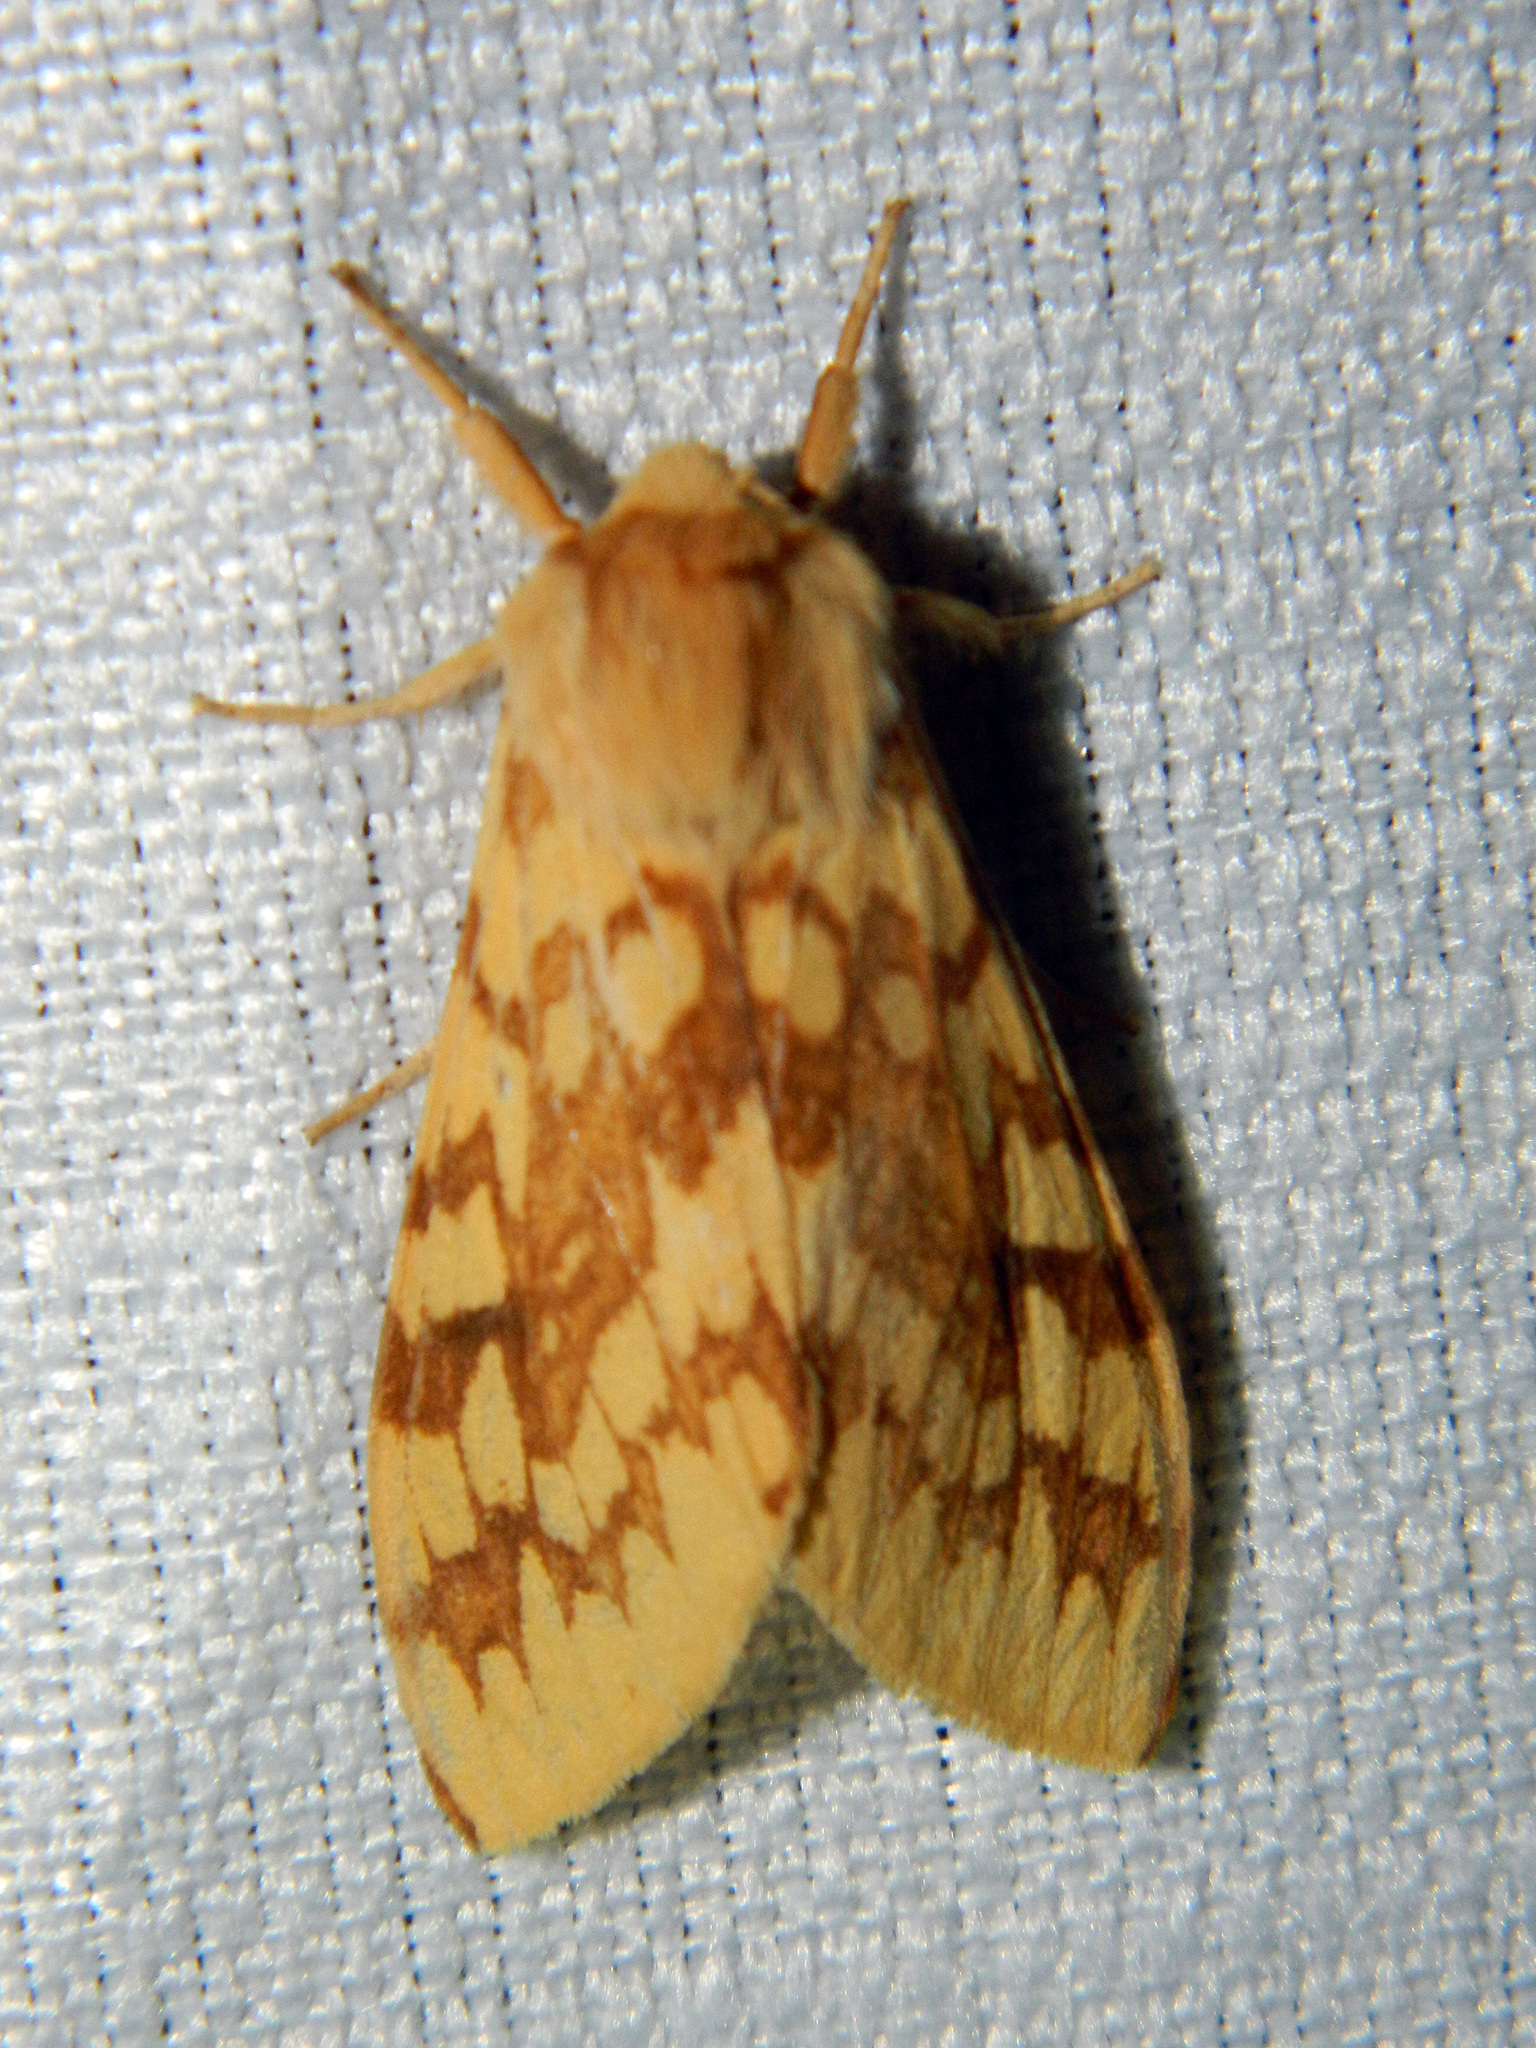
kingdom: Animalia
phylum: Arthropoda
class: Insecta
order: Lepidoptera
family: Erebidae
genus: Lophocampa
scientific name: Lophocampa maculata
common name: Spotted tussock moth
